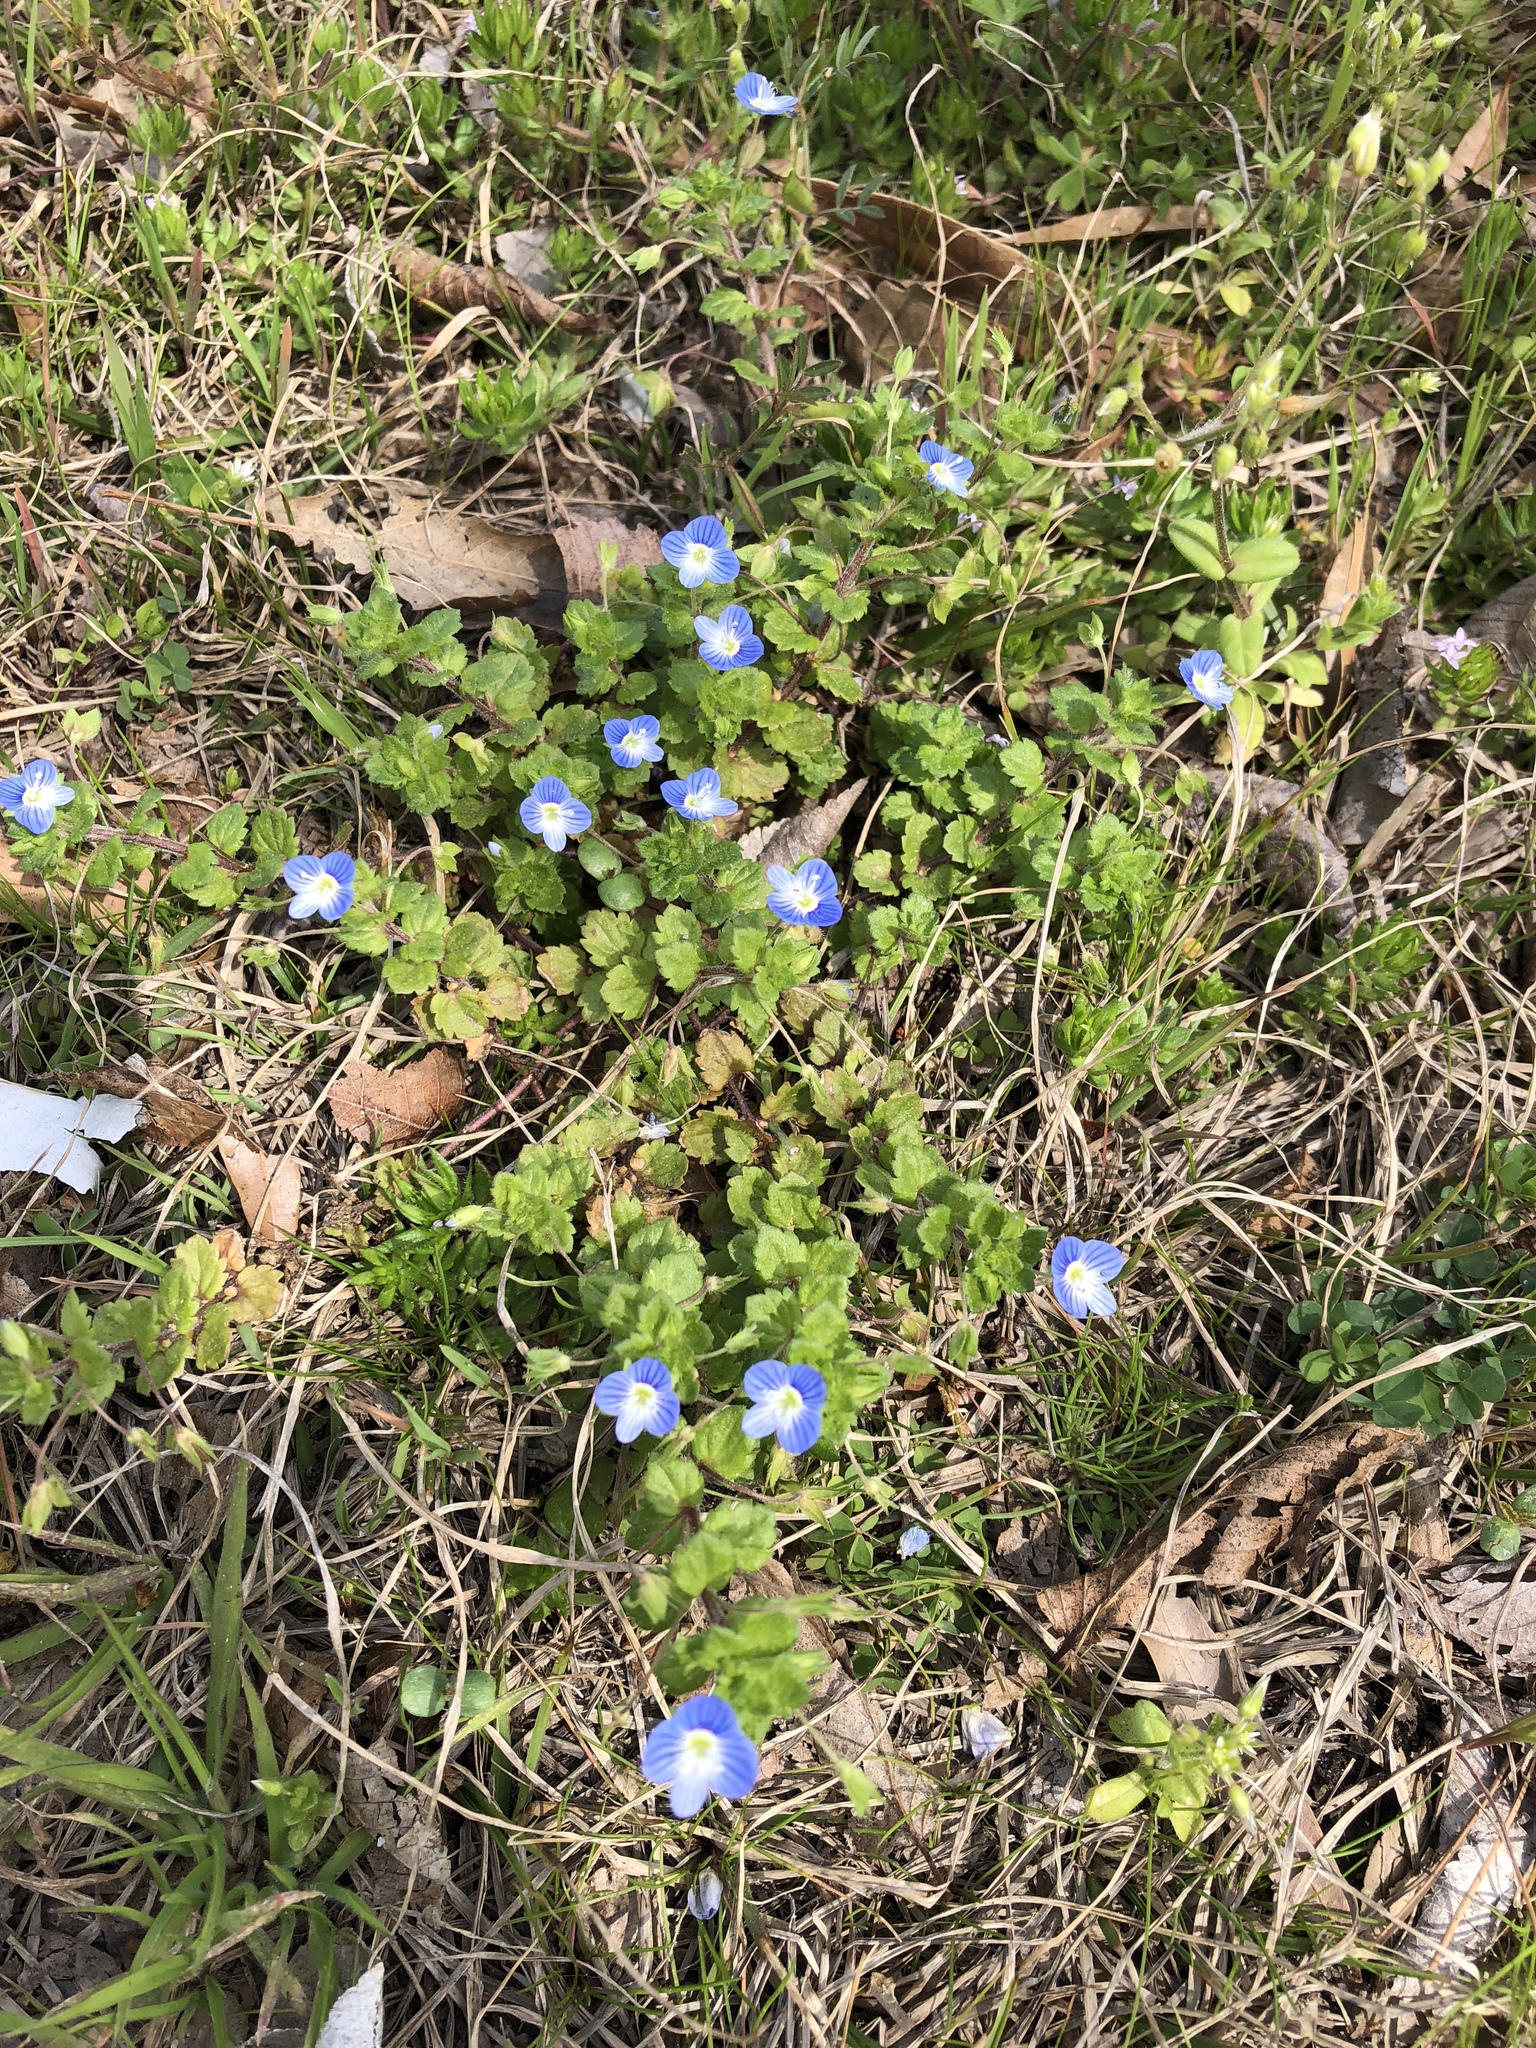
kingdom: Plantae
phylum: Tracheophyta
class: Magnoliopsida
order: Lamiales
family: Plantaginaceae
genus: Veronica
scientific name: Veronica persica
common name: Common field-speedwell
